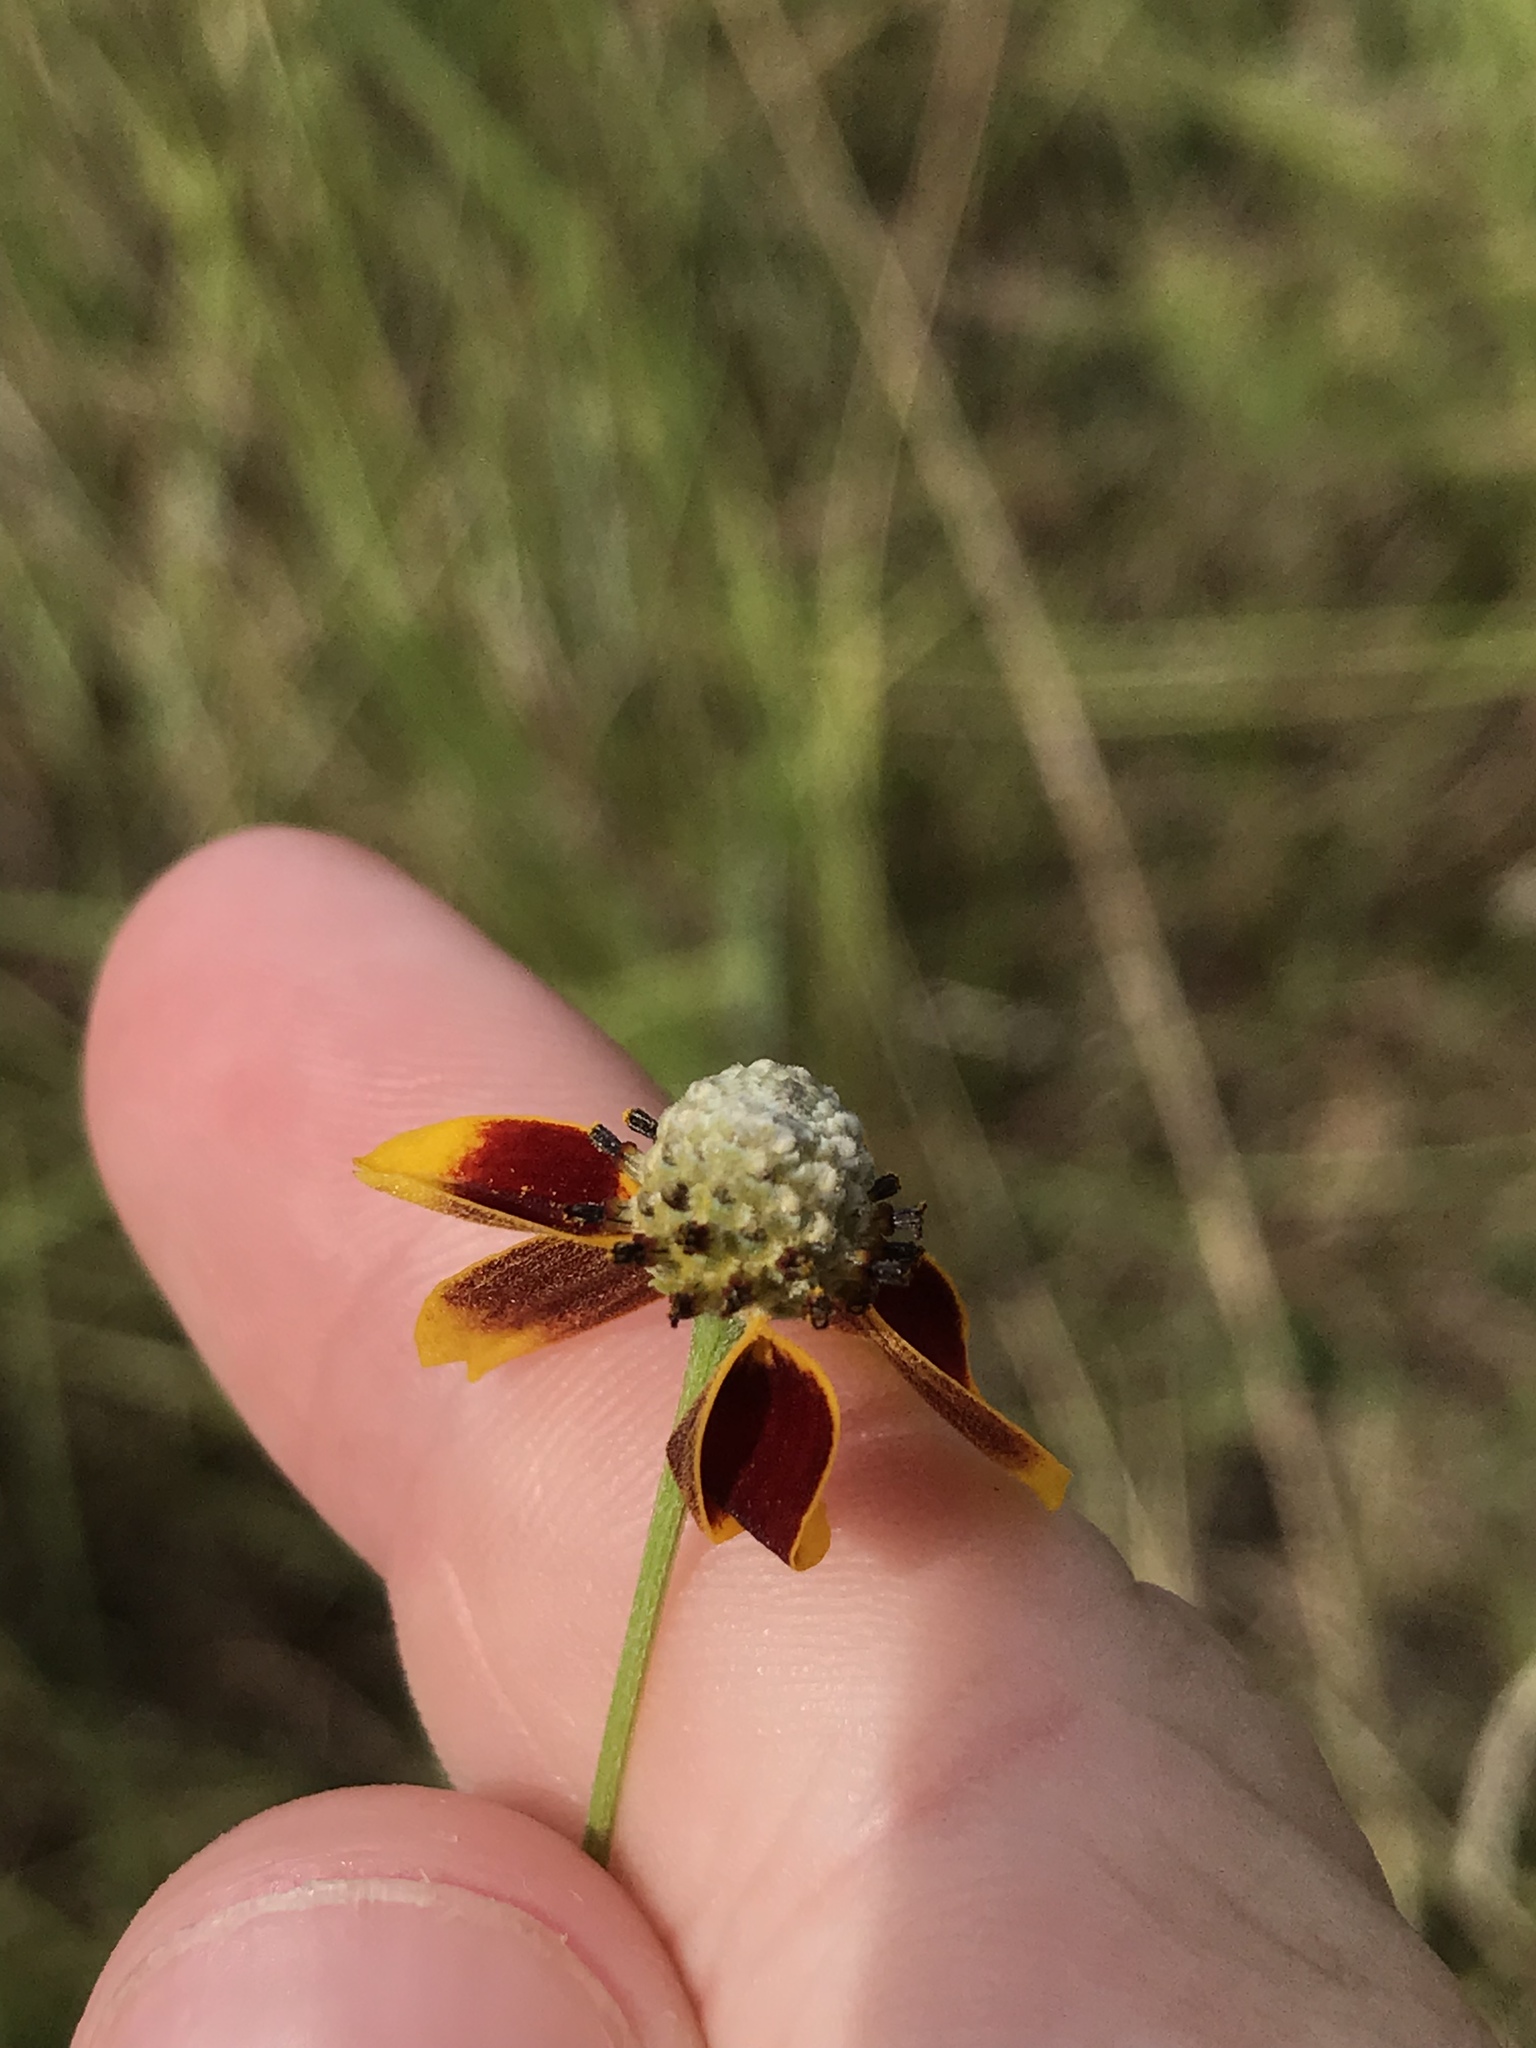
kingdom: Plantae
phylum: Tracheophyta
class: Magnoliopsida
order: Asterales
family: Asteraceae
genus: Ratibida
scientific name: Ratibida columnifera
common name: Prairie coneflower
